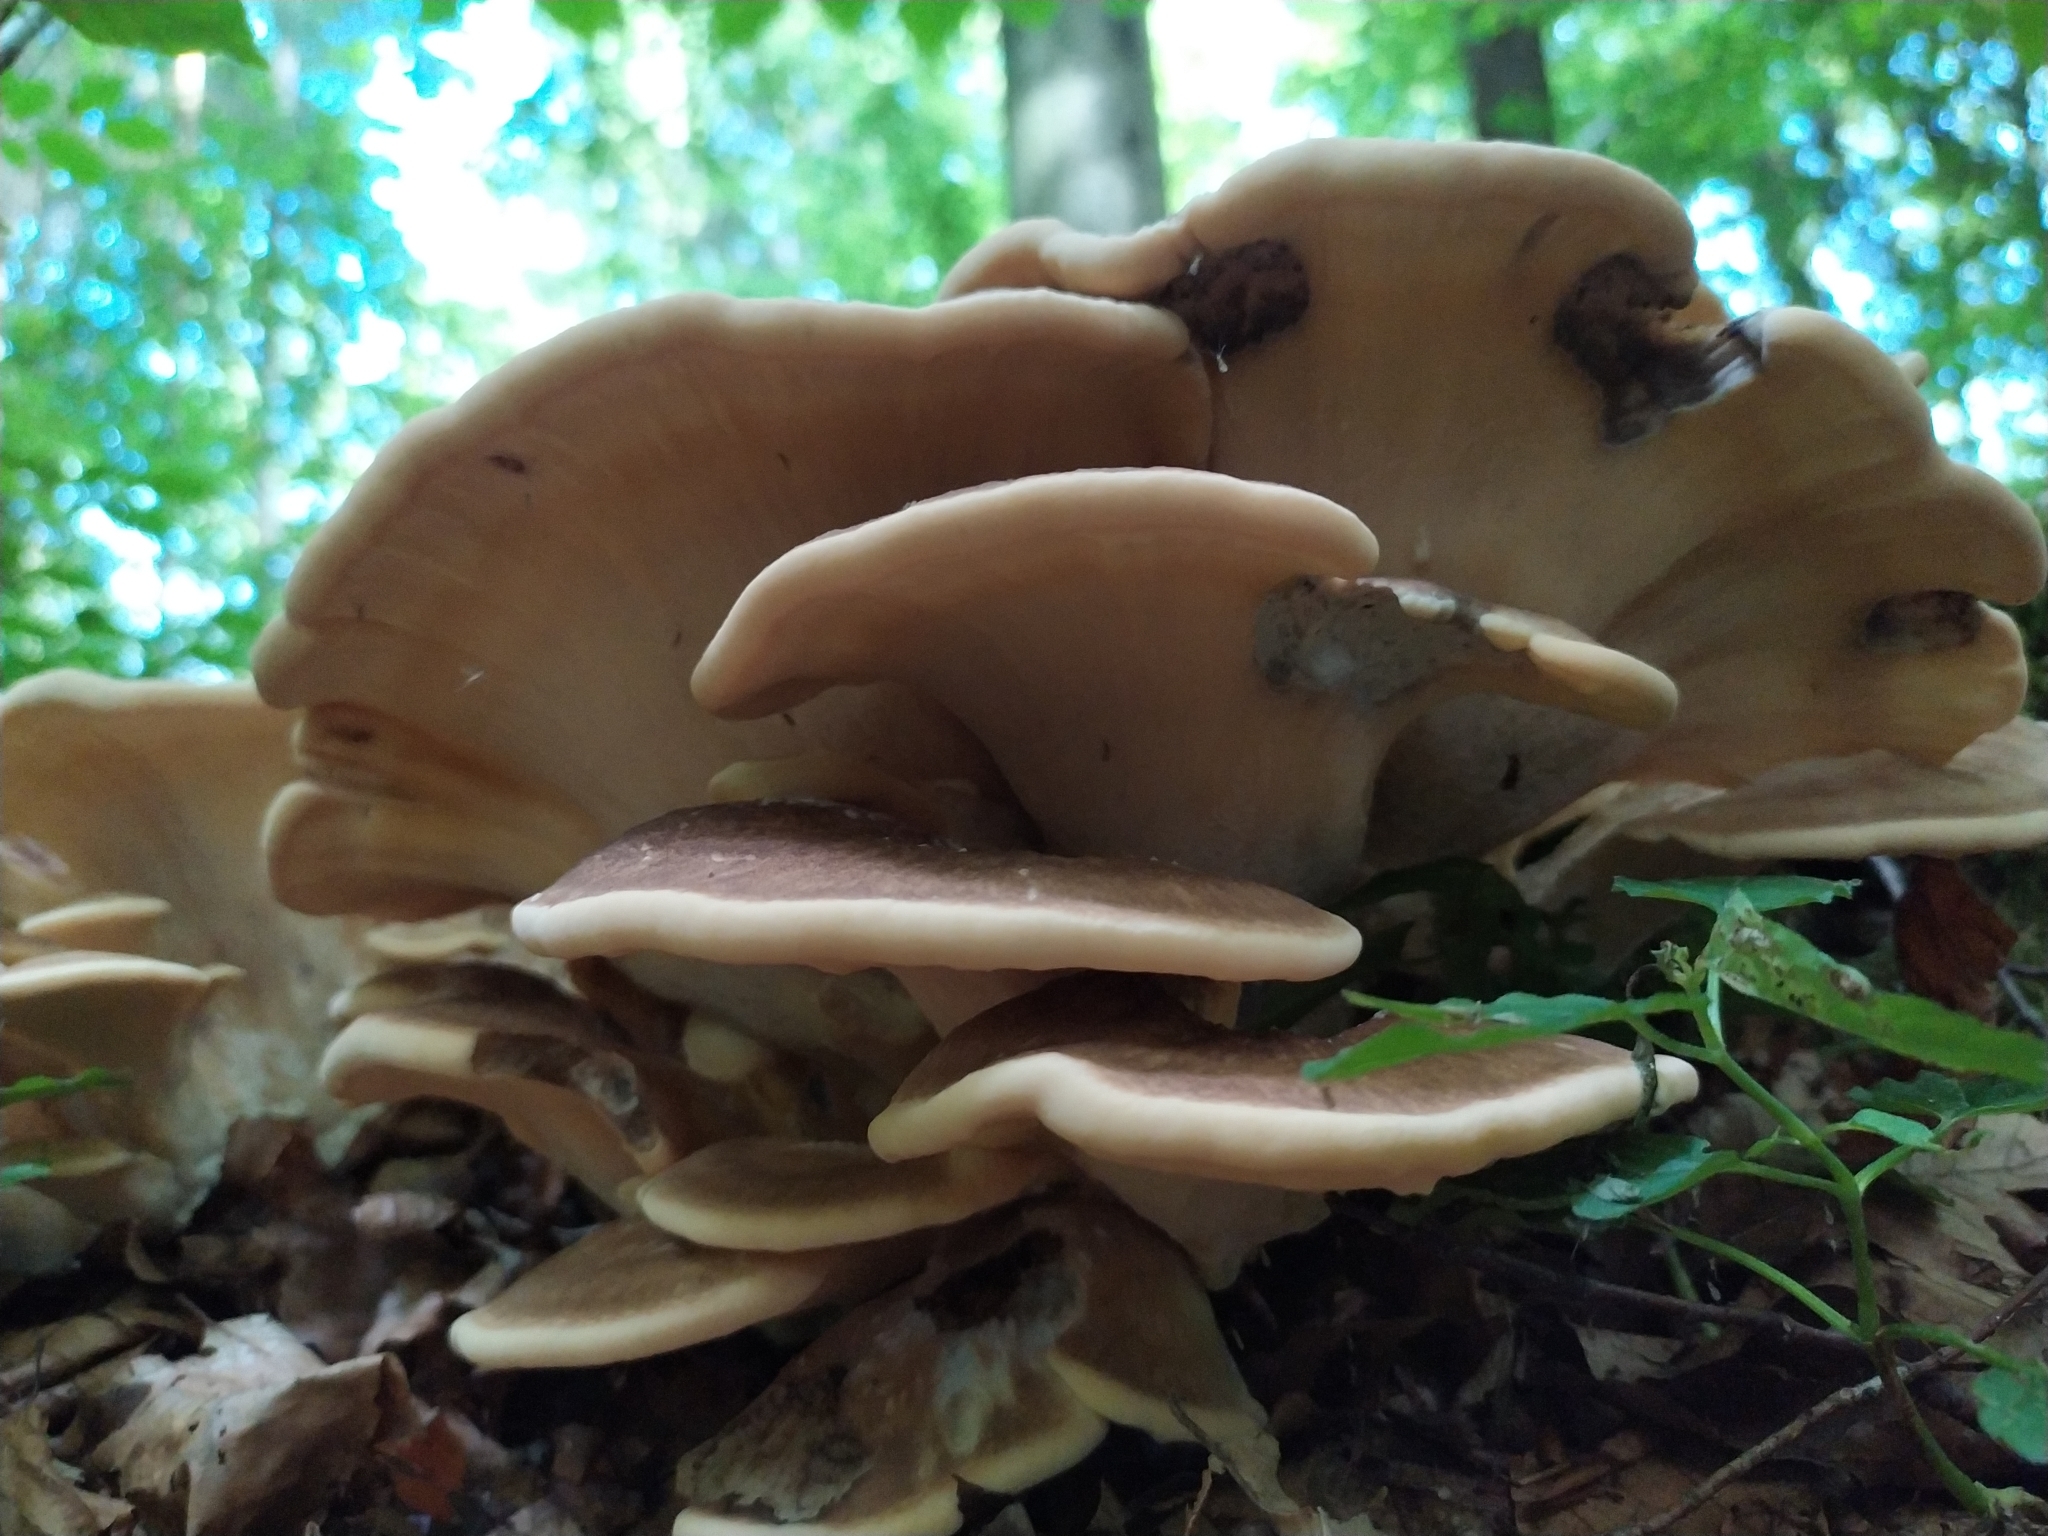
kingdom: Fungi
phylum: Basidiomycota
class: Agaricomycetes
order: Polyporales
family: Meripilaceae
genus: Meripilus
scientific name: Meripilus giganteus
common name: Giant polypore
